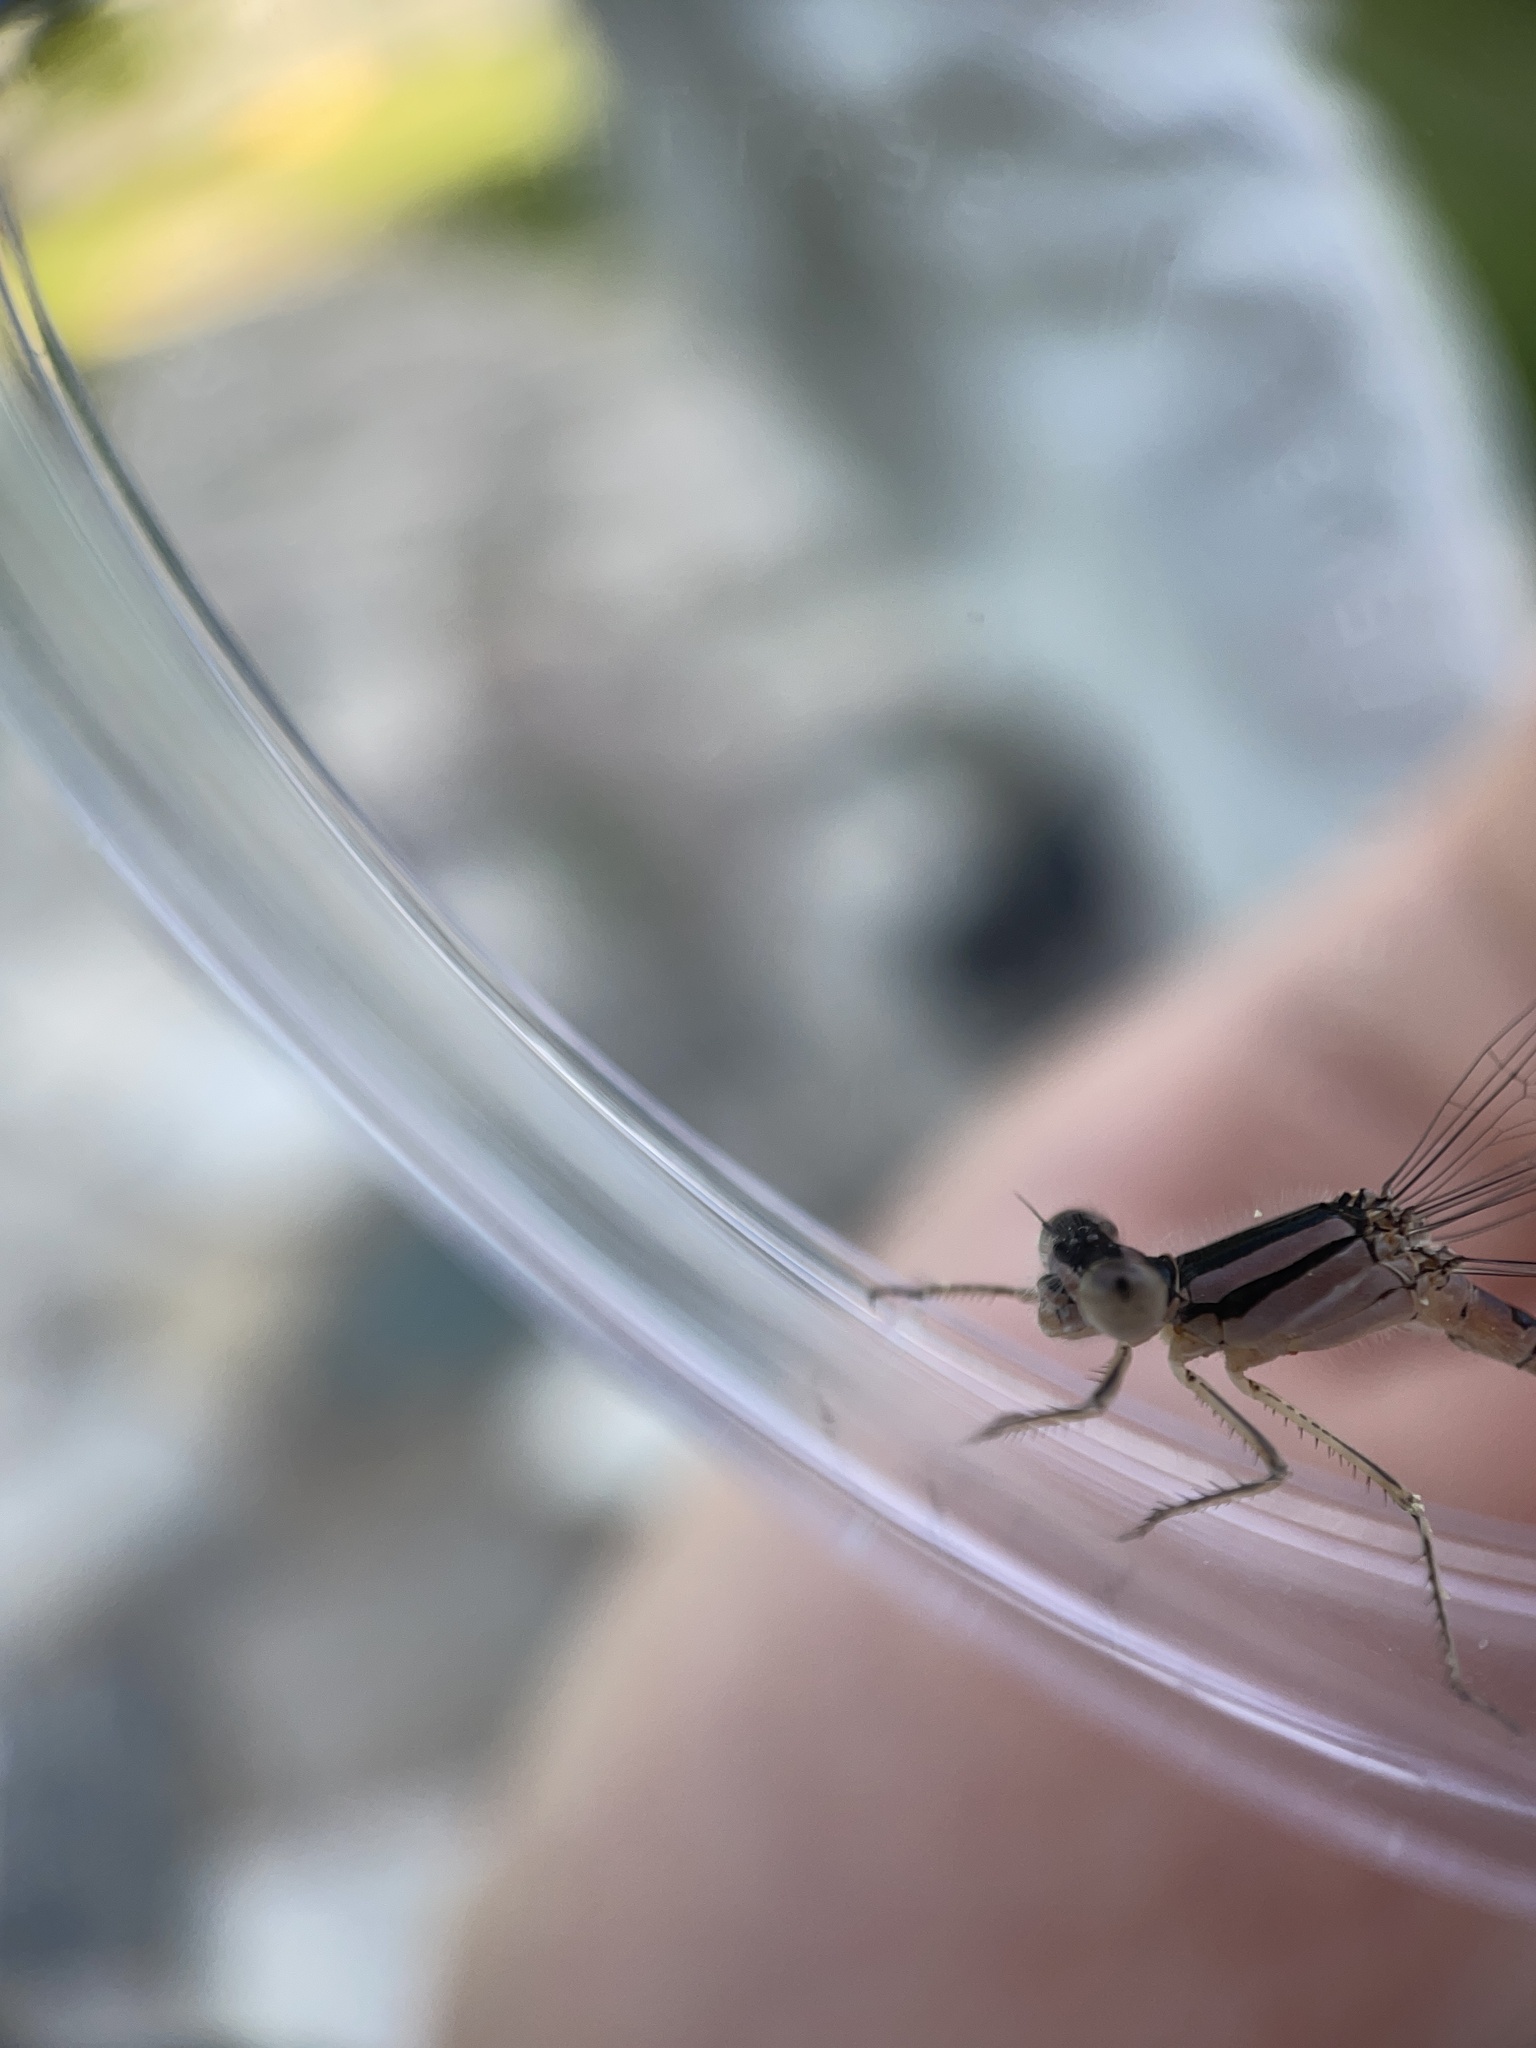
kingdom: Animalia
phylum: Arthropoda
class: Insecta
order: Odonata
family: Coenagrionidae
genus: Enallagma
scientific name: Enallagma civile
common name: Damselfly
